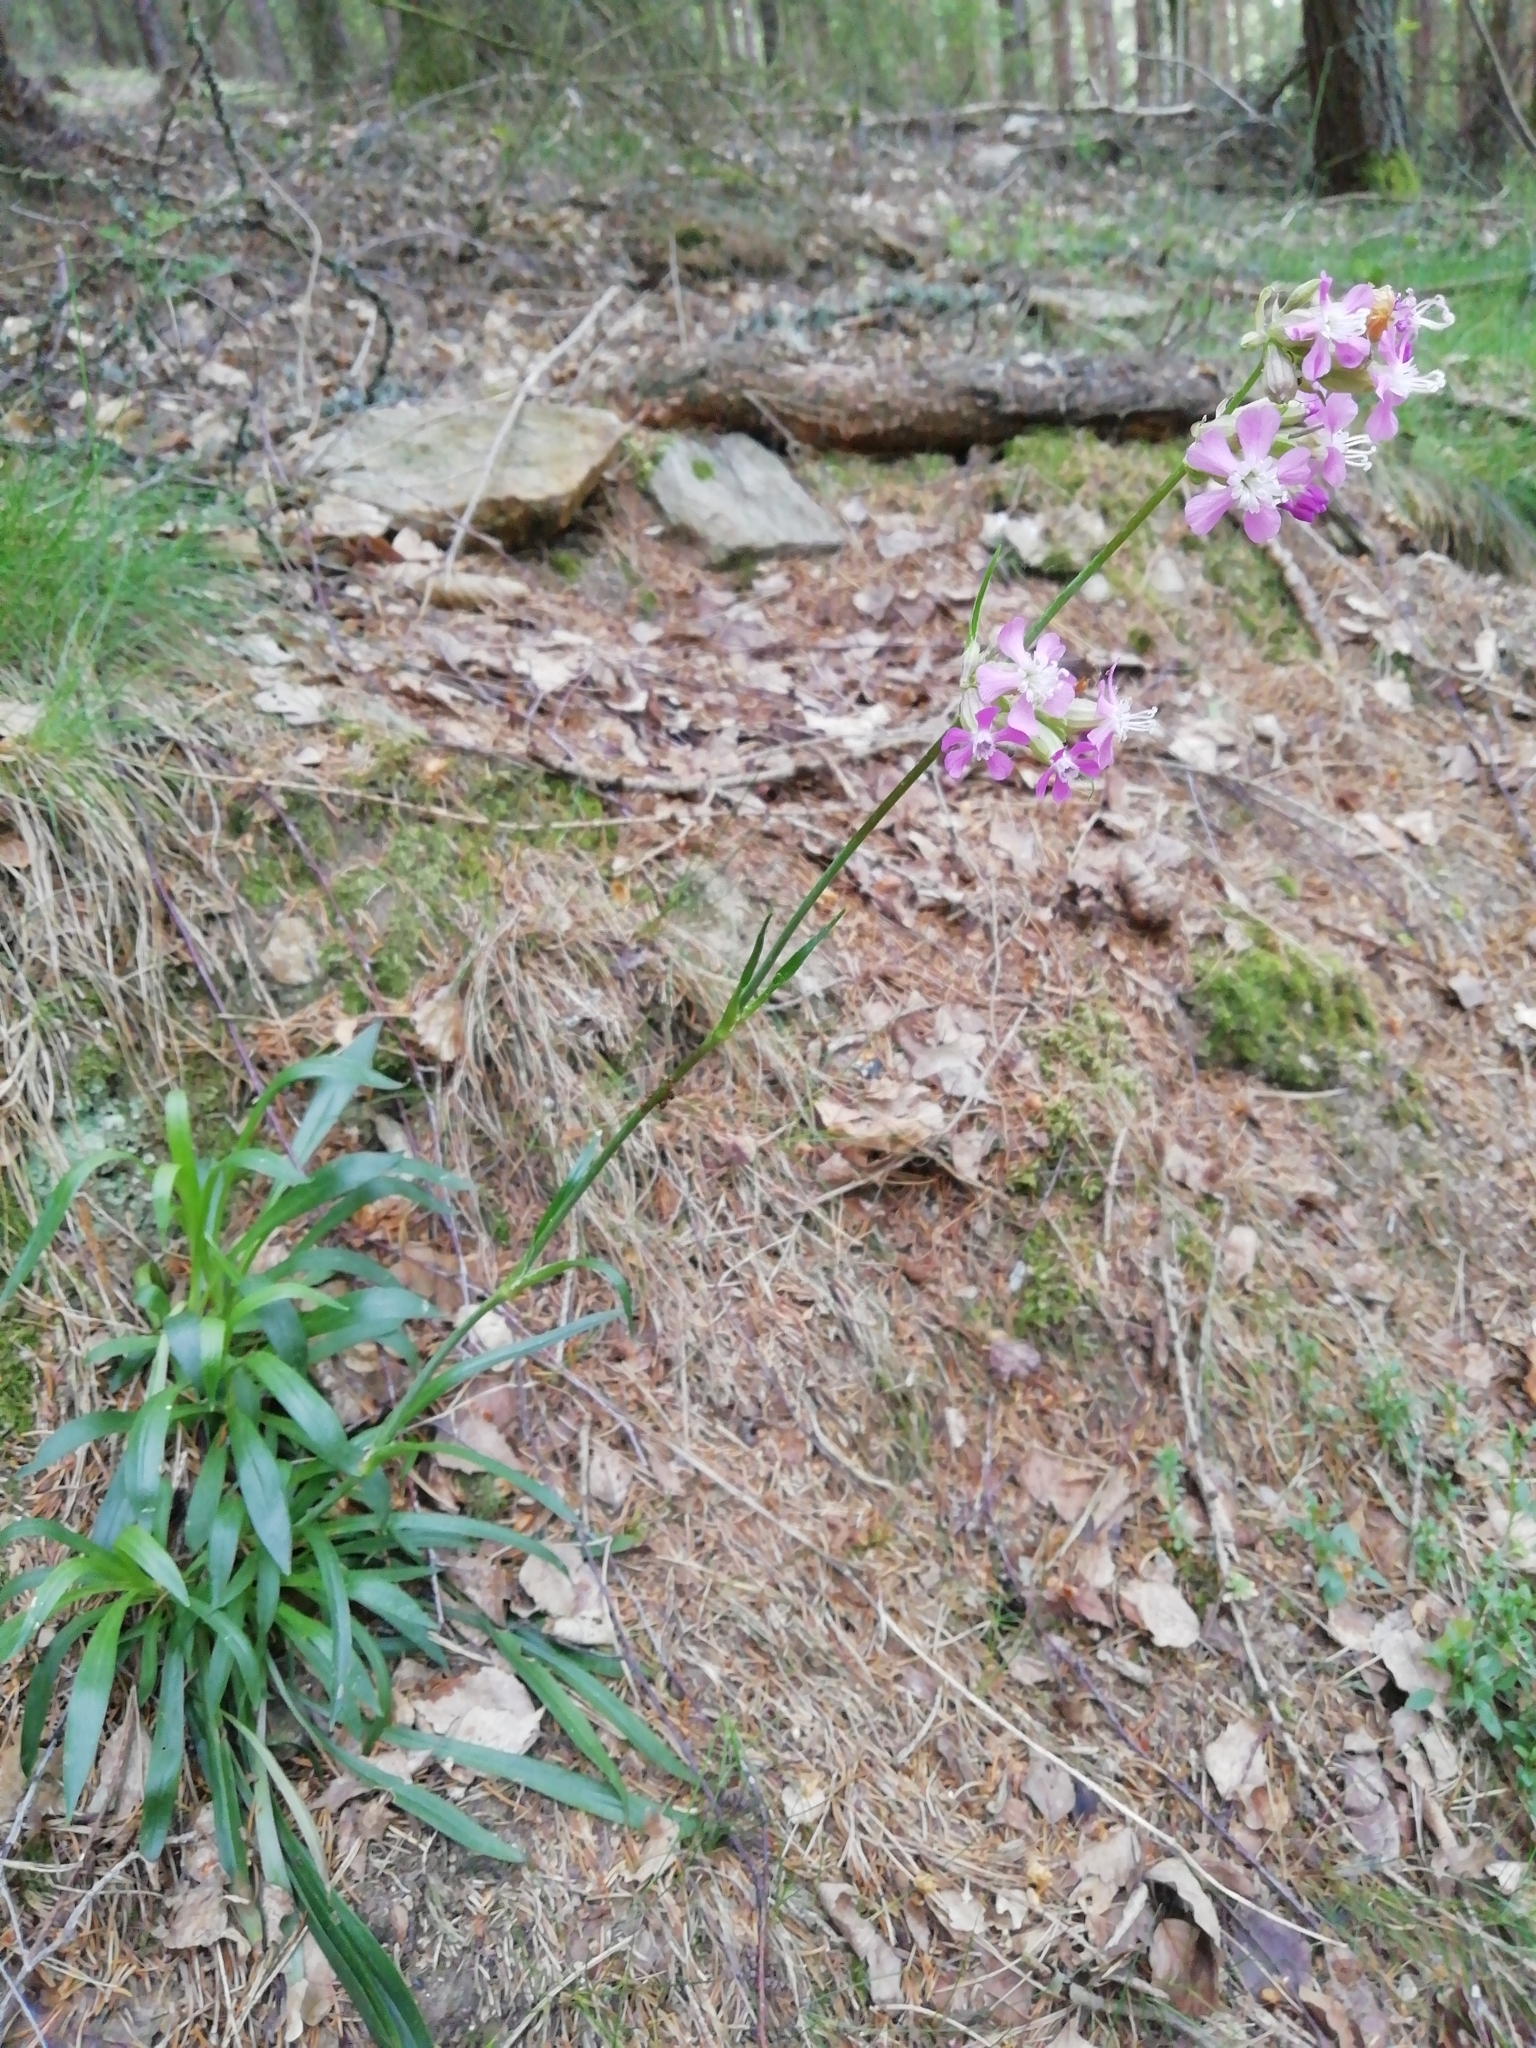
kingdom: Plantae
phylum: Tracheophyta
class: Magnoliopsida
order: Caryophyllales
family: Caryophyllaceae
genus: Viscaria
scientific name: Viscaria vulgaris
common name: Clammy campion
